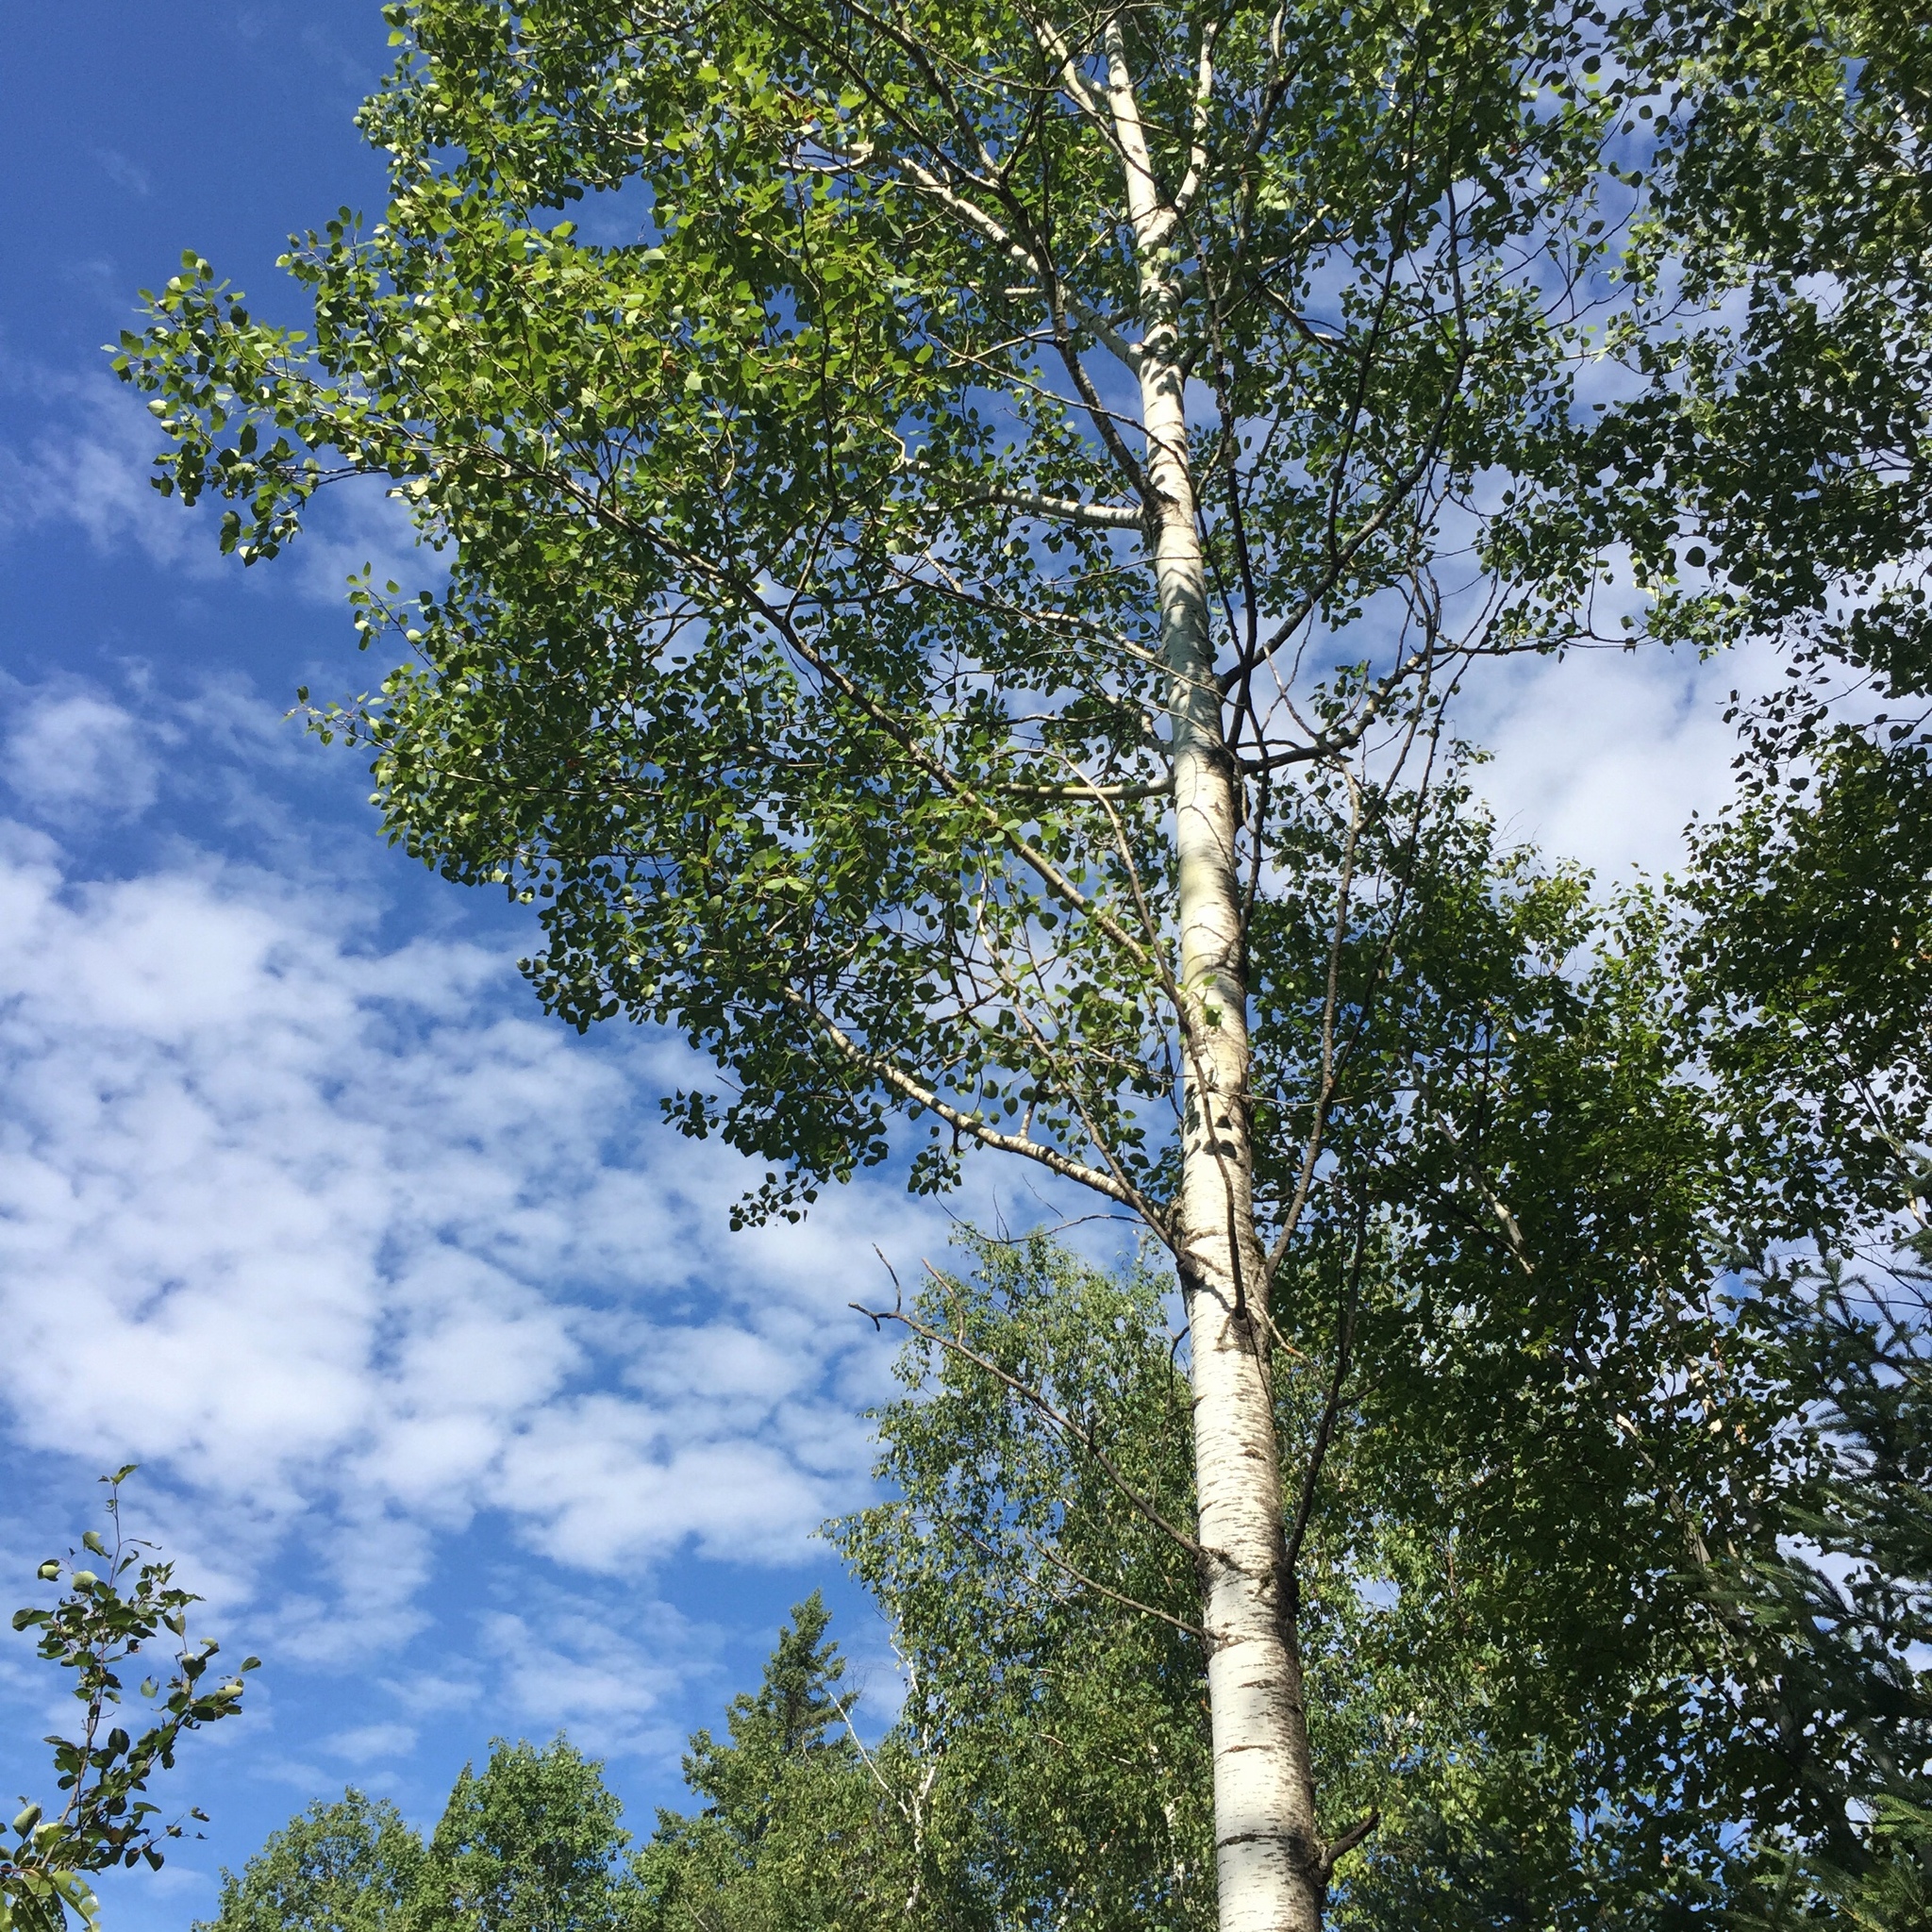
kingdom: Plantae
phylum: Tracheophyta
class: Magnoliopsida
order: Malpighiales
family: Salicaceae
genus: Populus
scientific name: Populus tremuloides
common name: Quaking aspen
